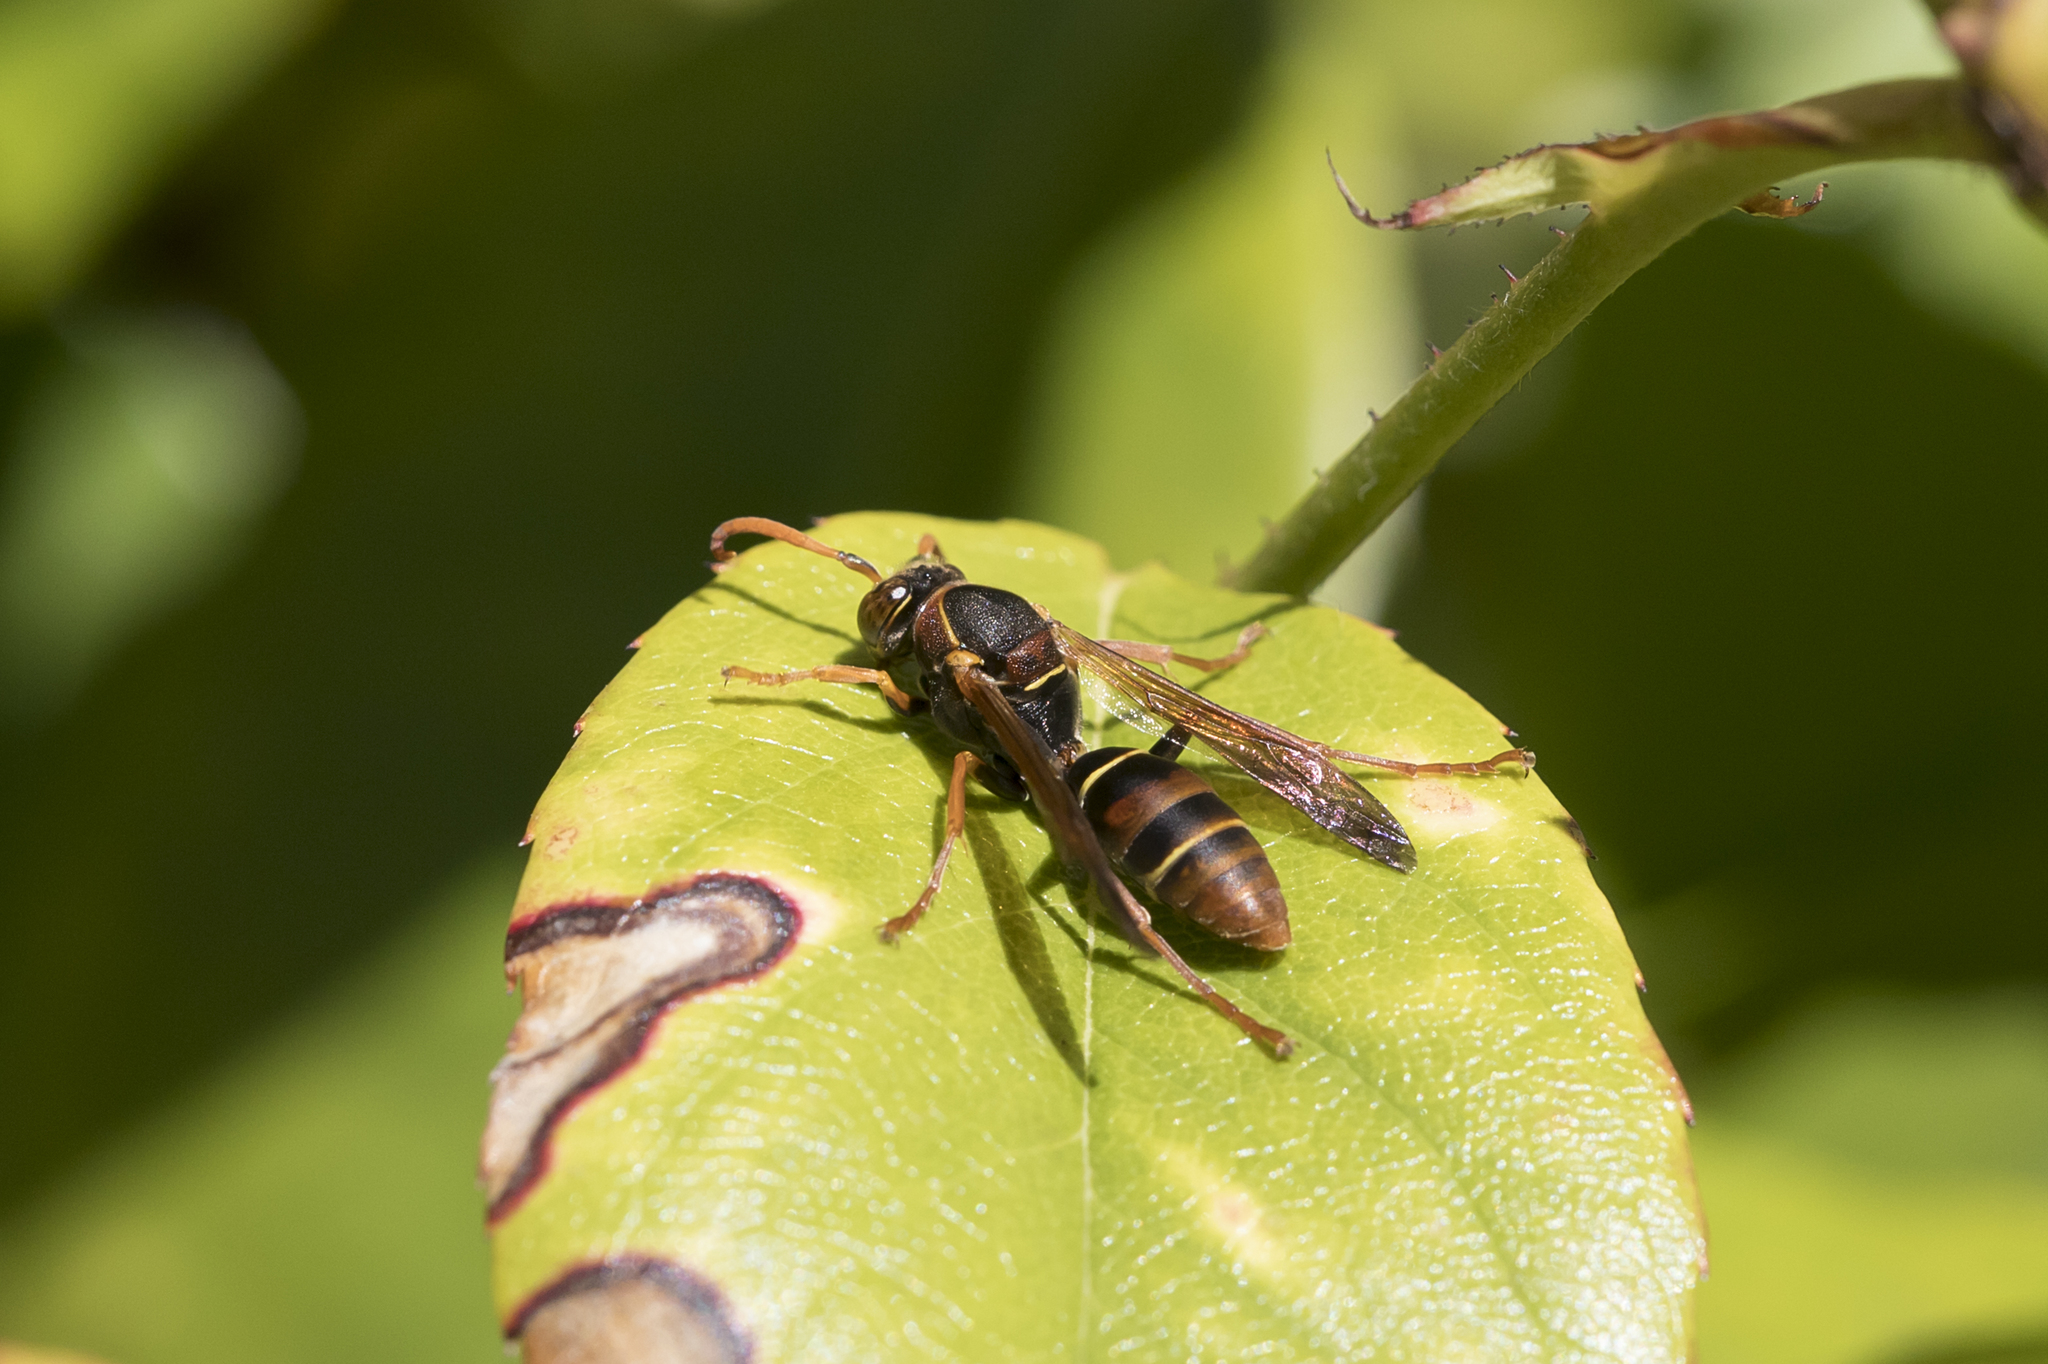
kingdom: Animalia
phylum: Arthropoda
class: Insecta
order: Hymenoptera
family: Eumenidae
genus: Polistes
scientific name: Polistes humilis
